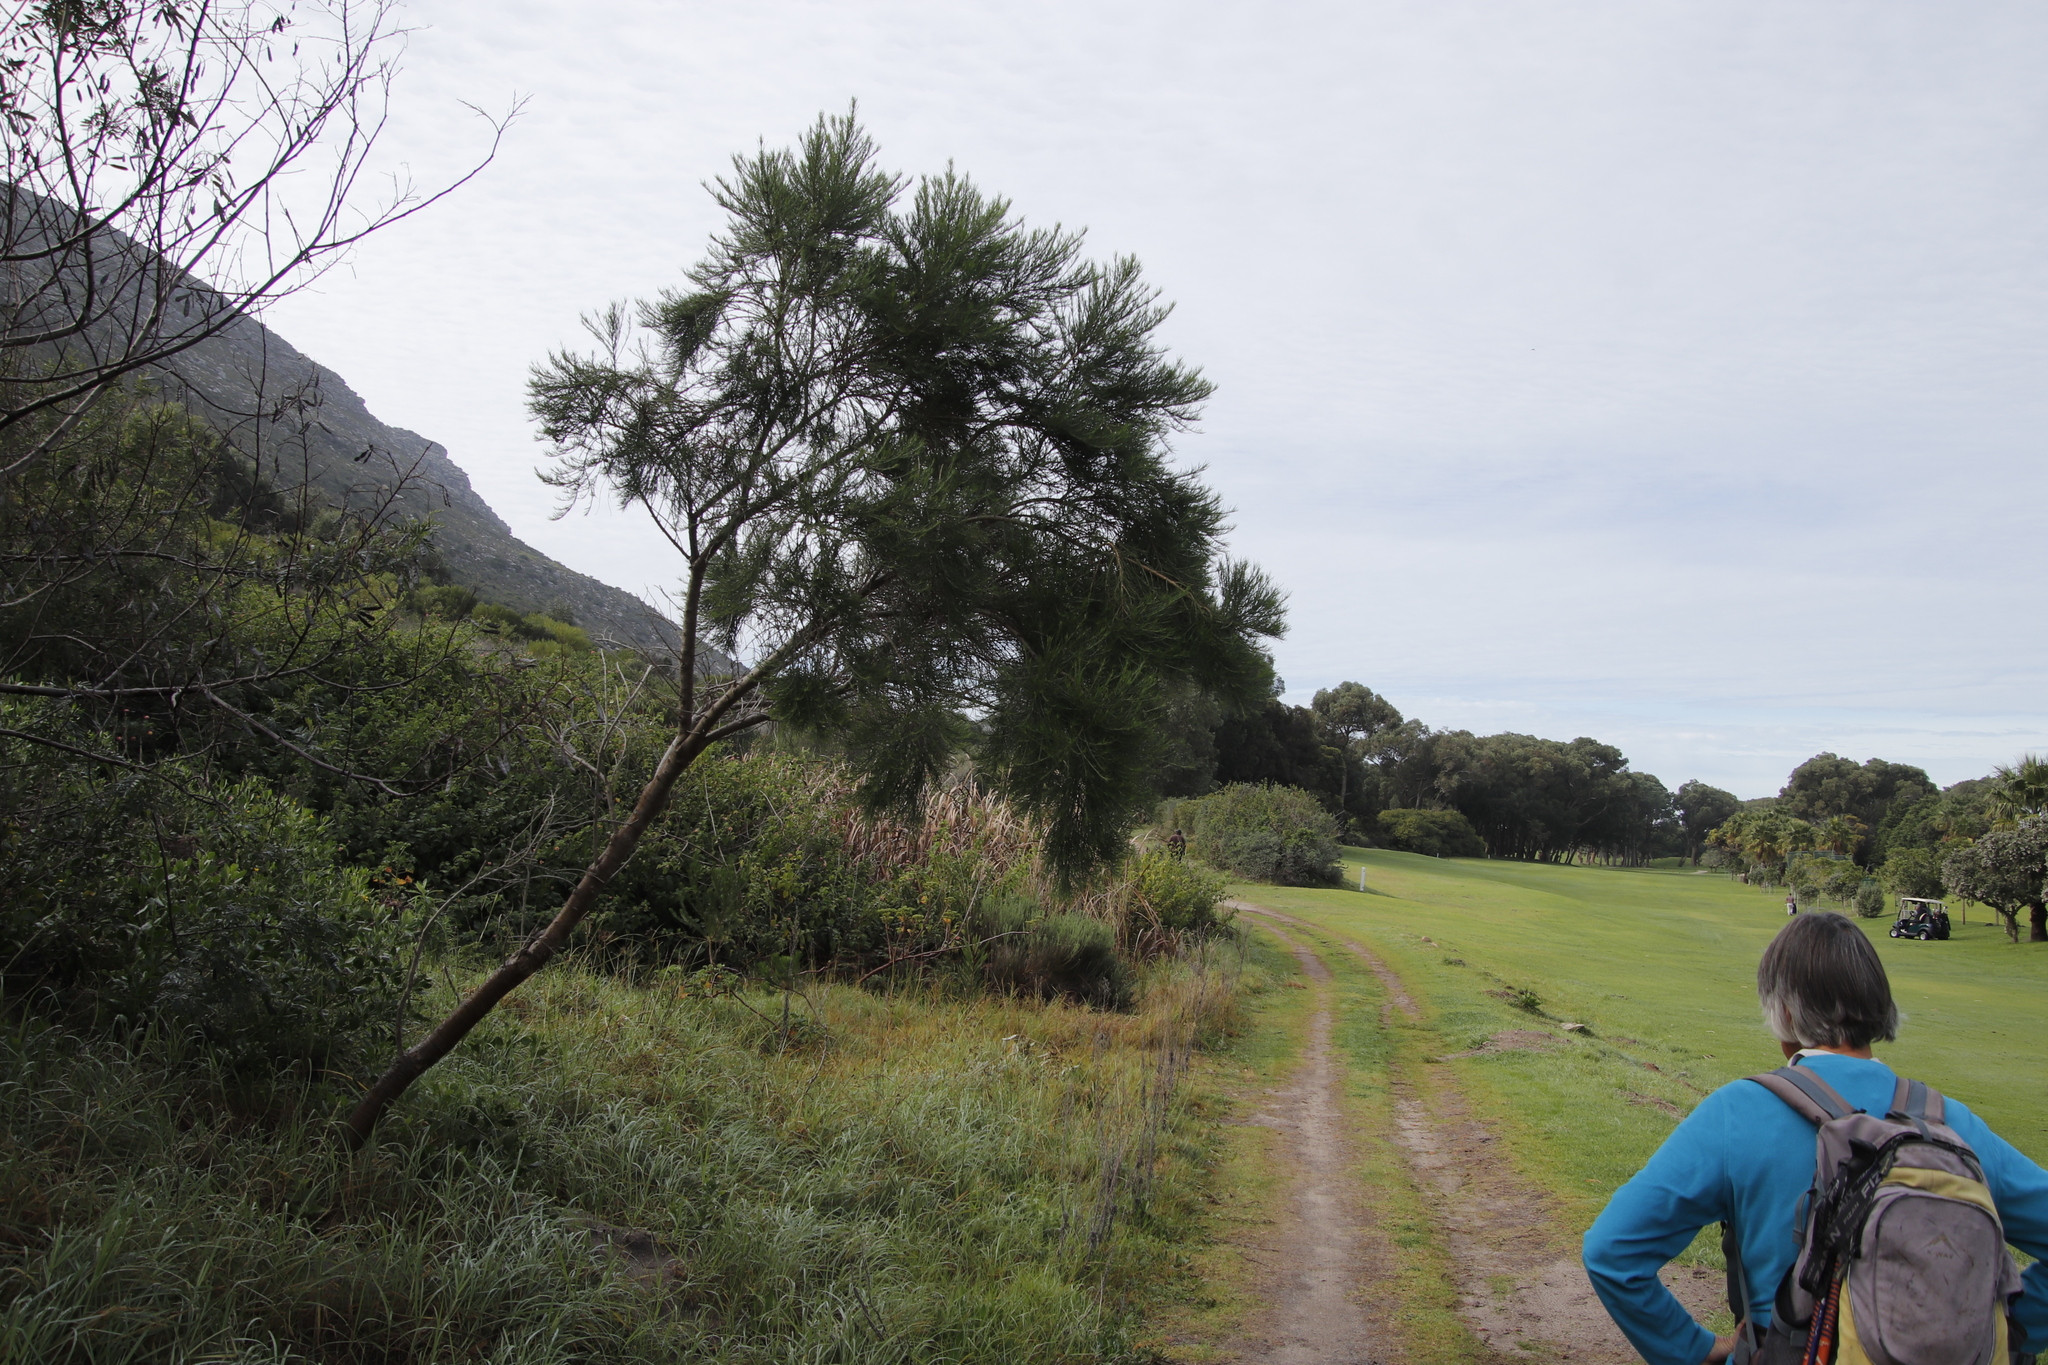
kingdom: Plantae
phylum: Tracheophyta
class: Magnoliopsida
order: Fabales
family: Fabaceae
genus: Psoralea
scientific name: Psoralea pinnata
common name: African scurfpea
